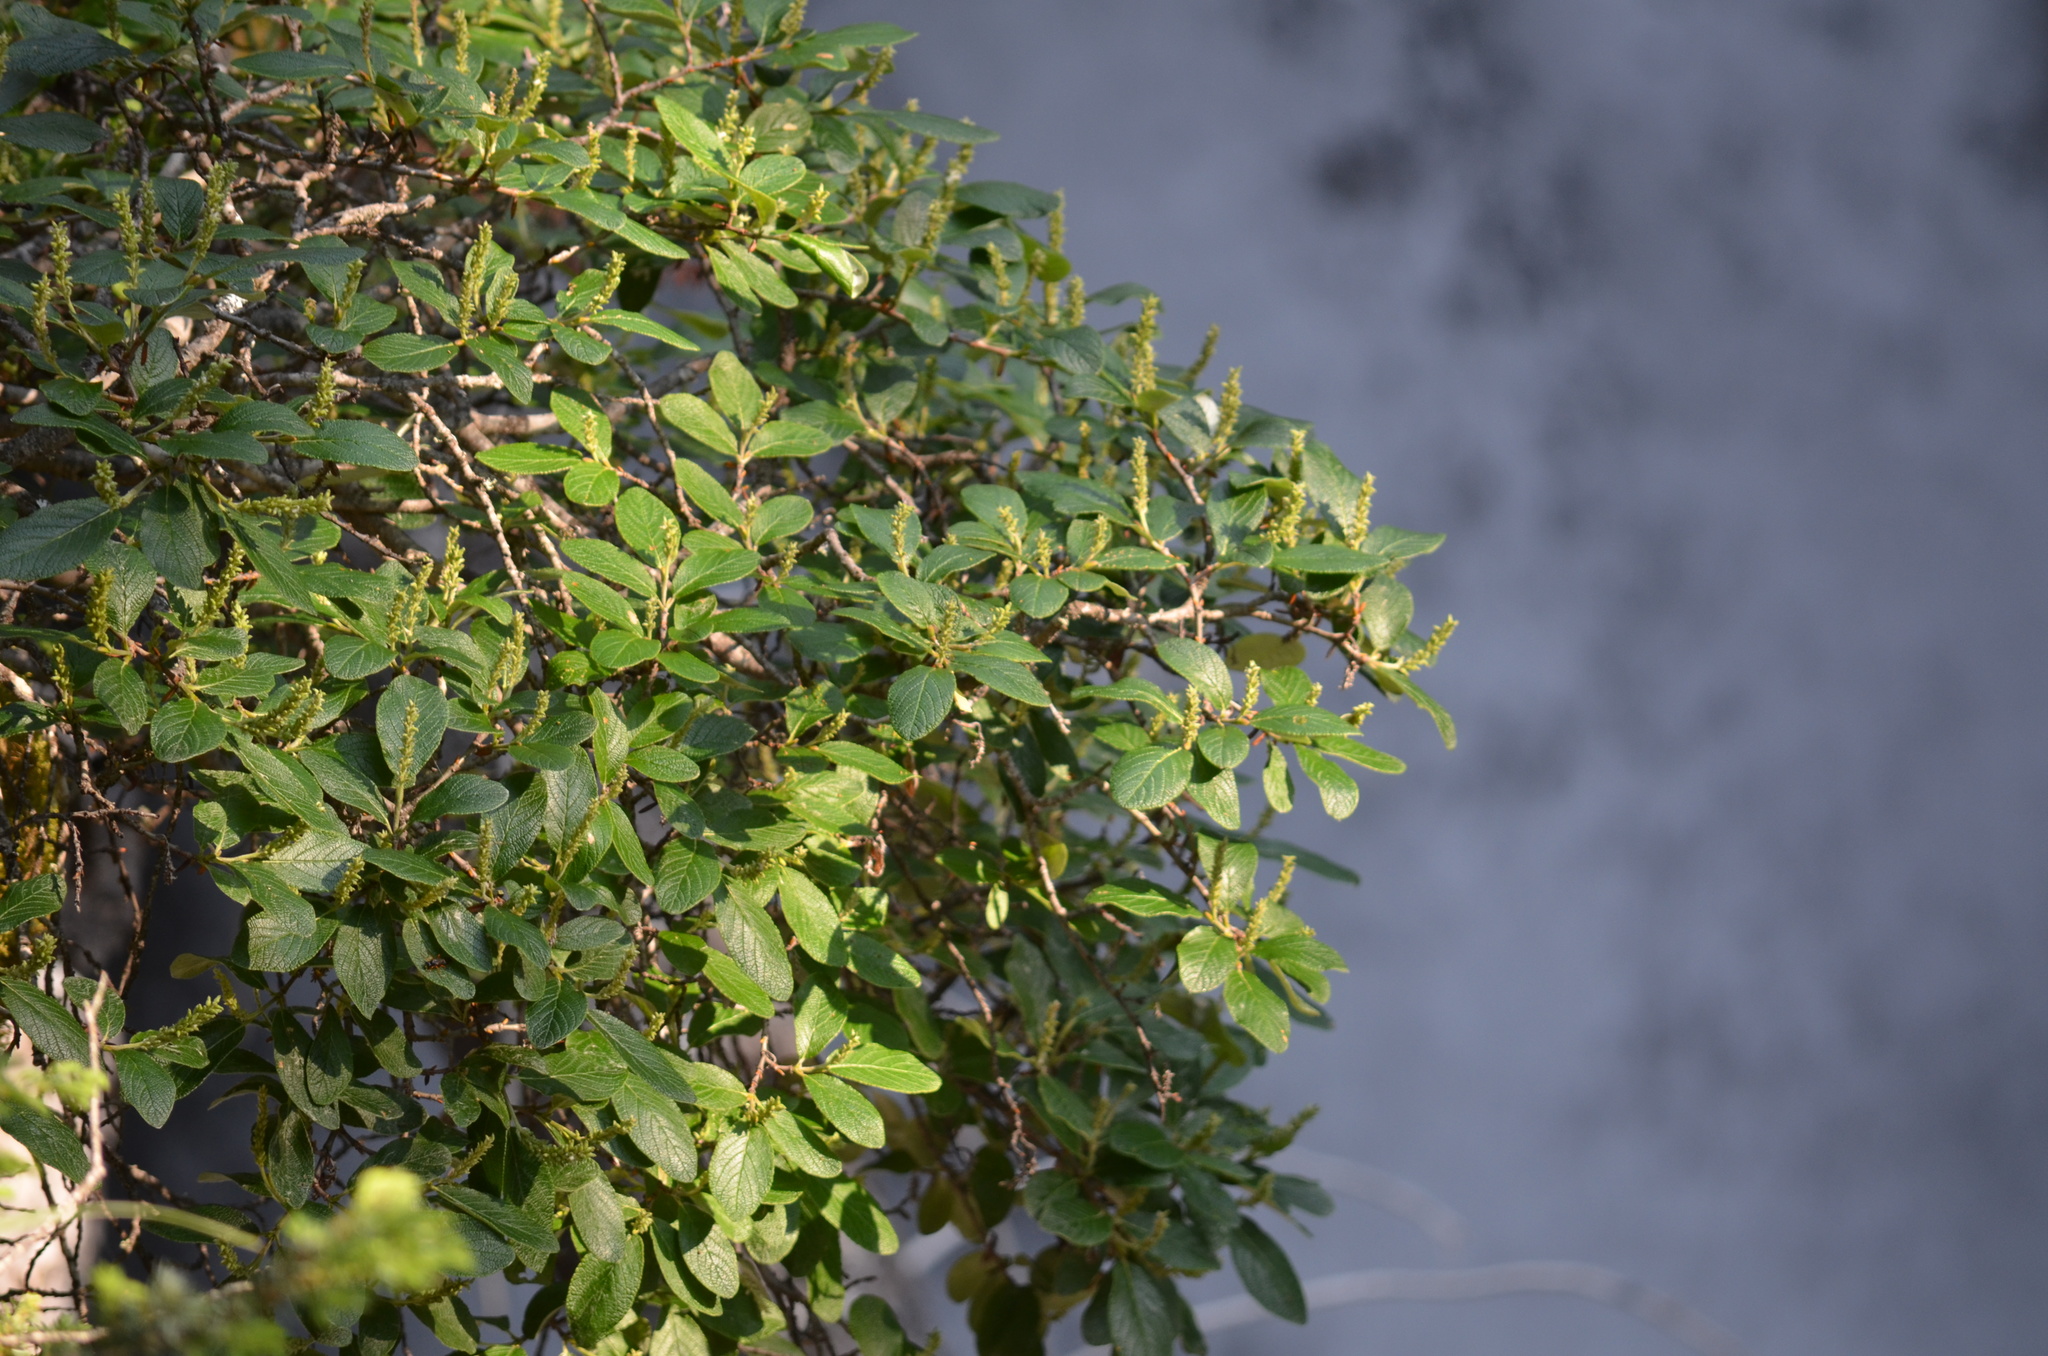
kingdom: Plantae
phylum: Tracheophyta
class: Magnoliopsida
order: Malpighiales
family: Salicaceae
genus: Salix
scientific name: Salix vestita
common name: Hairy willow
